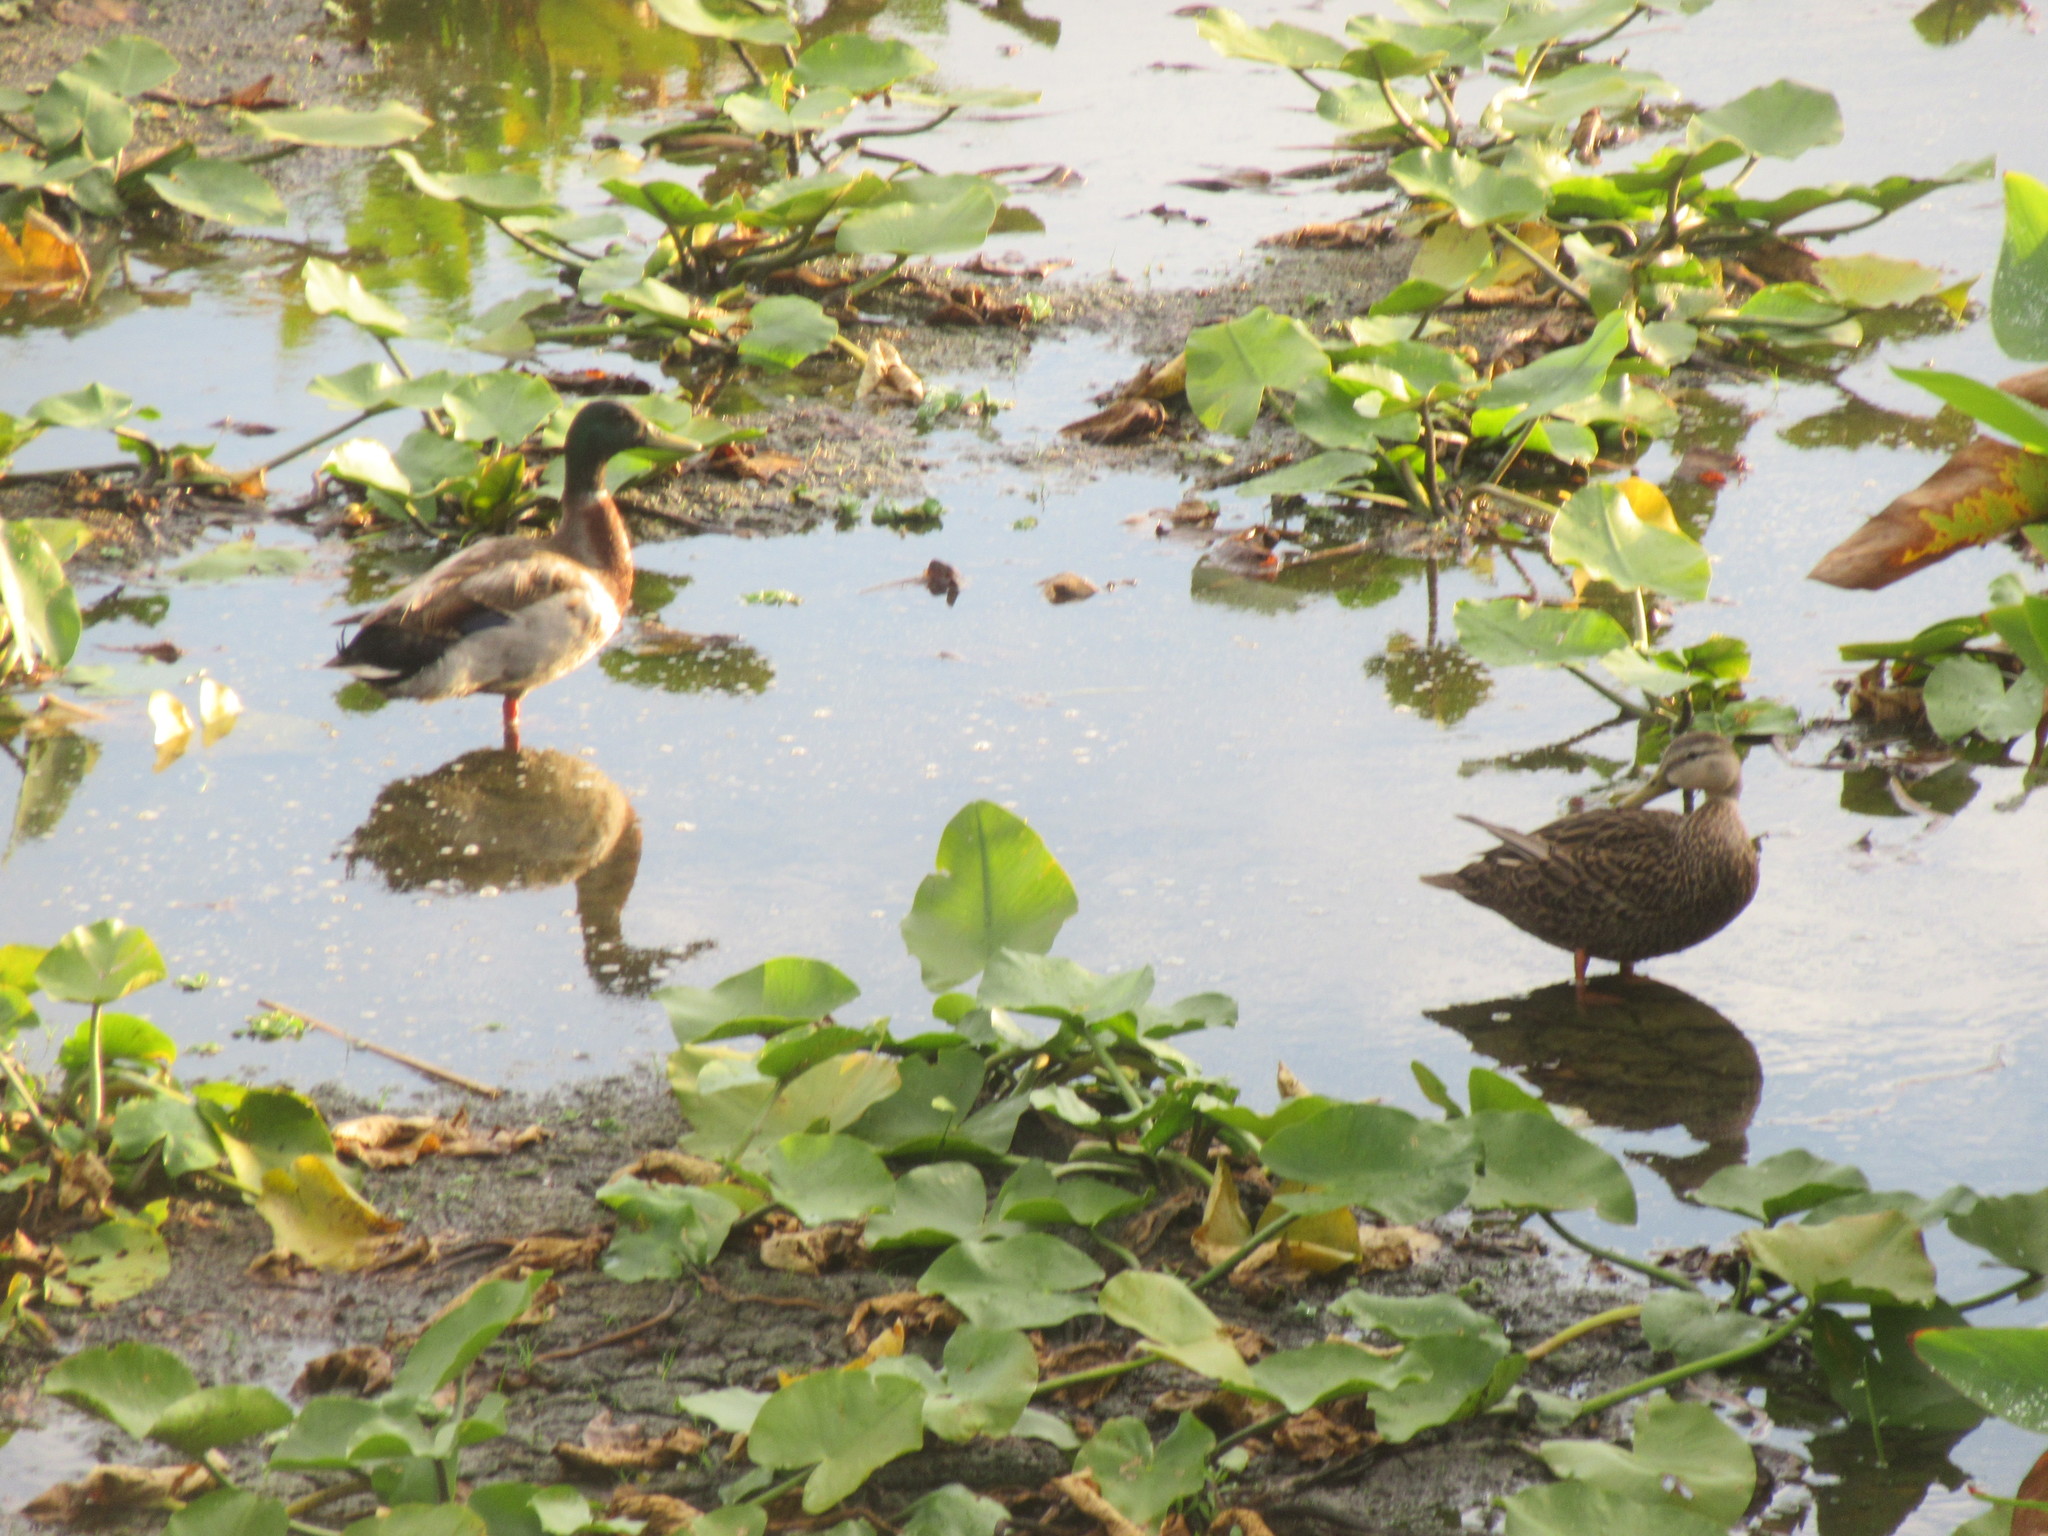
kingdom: Animalia
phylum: Chordata
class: Aves
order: Anseriformes
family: Anatidae
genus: Anas
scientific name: Anas platyrhynchos
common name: Mallard
